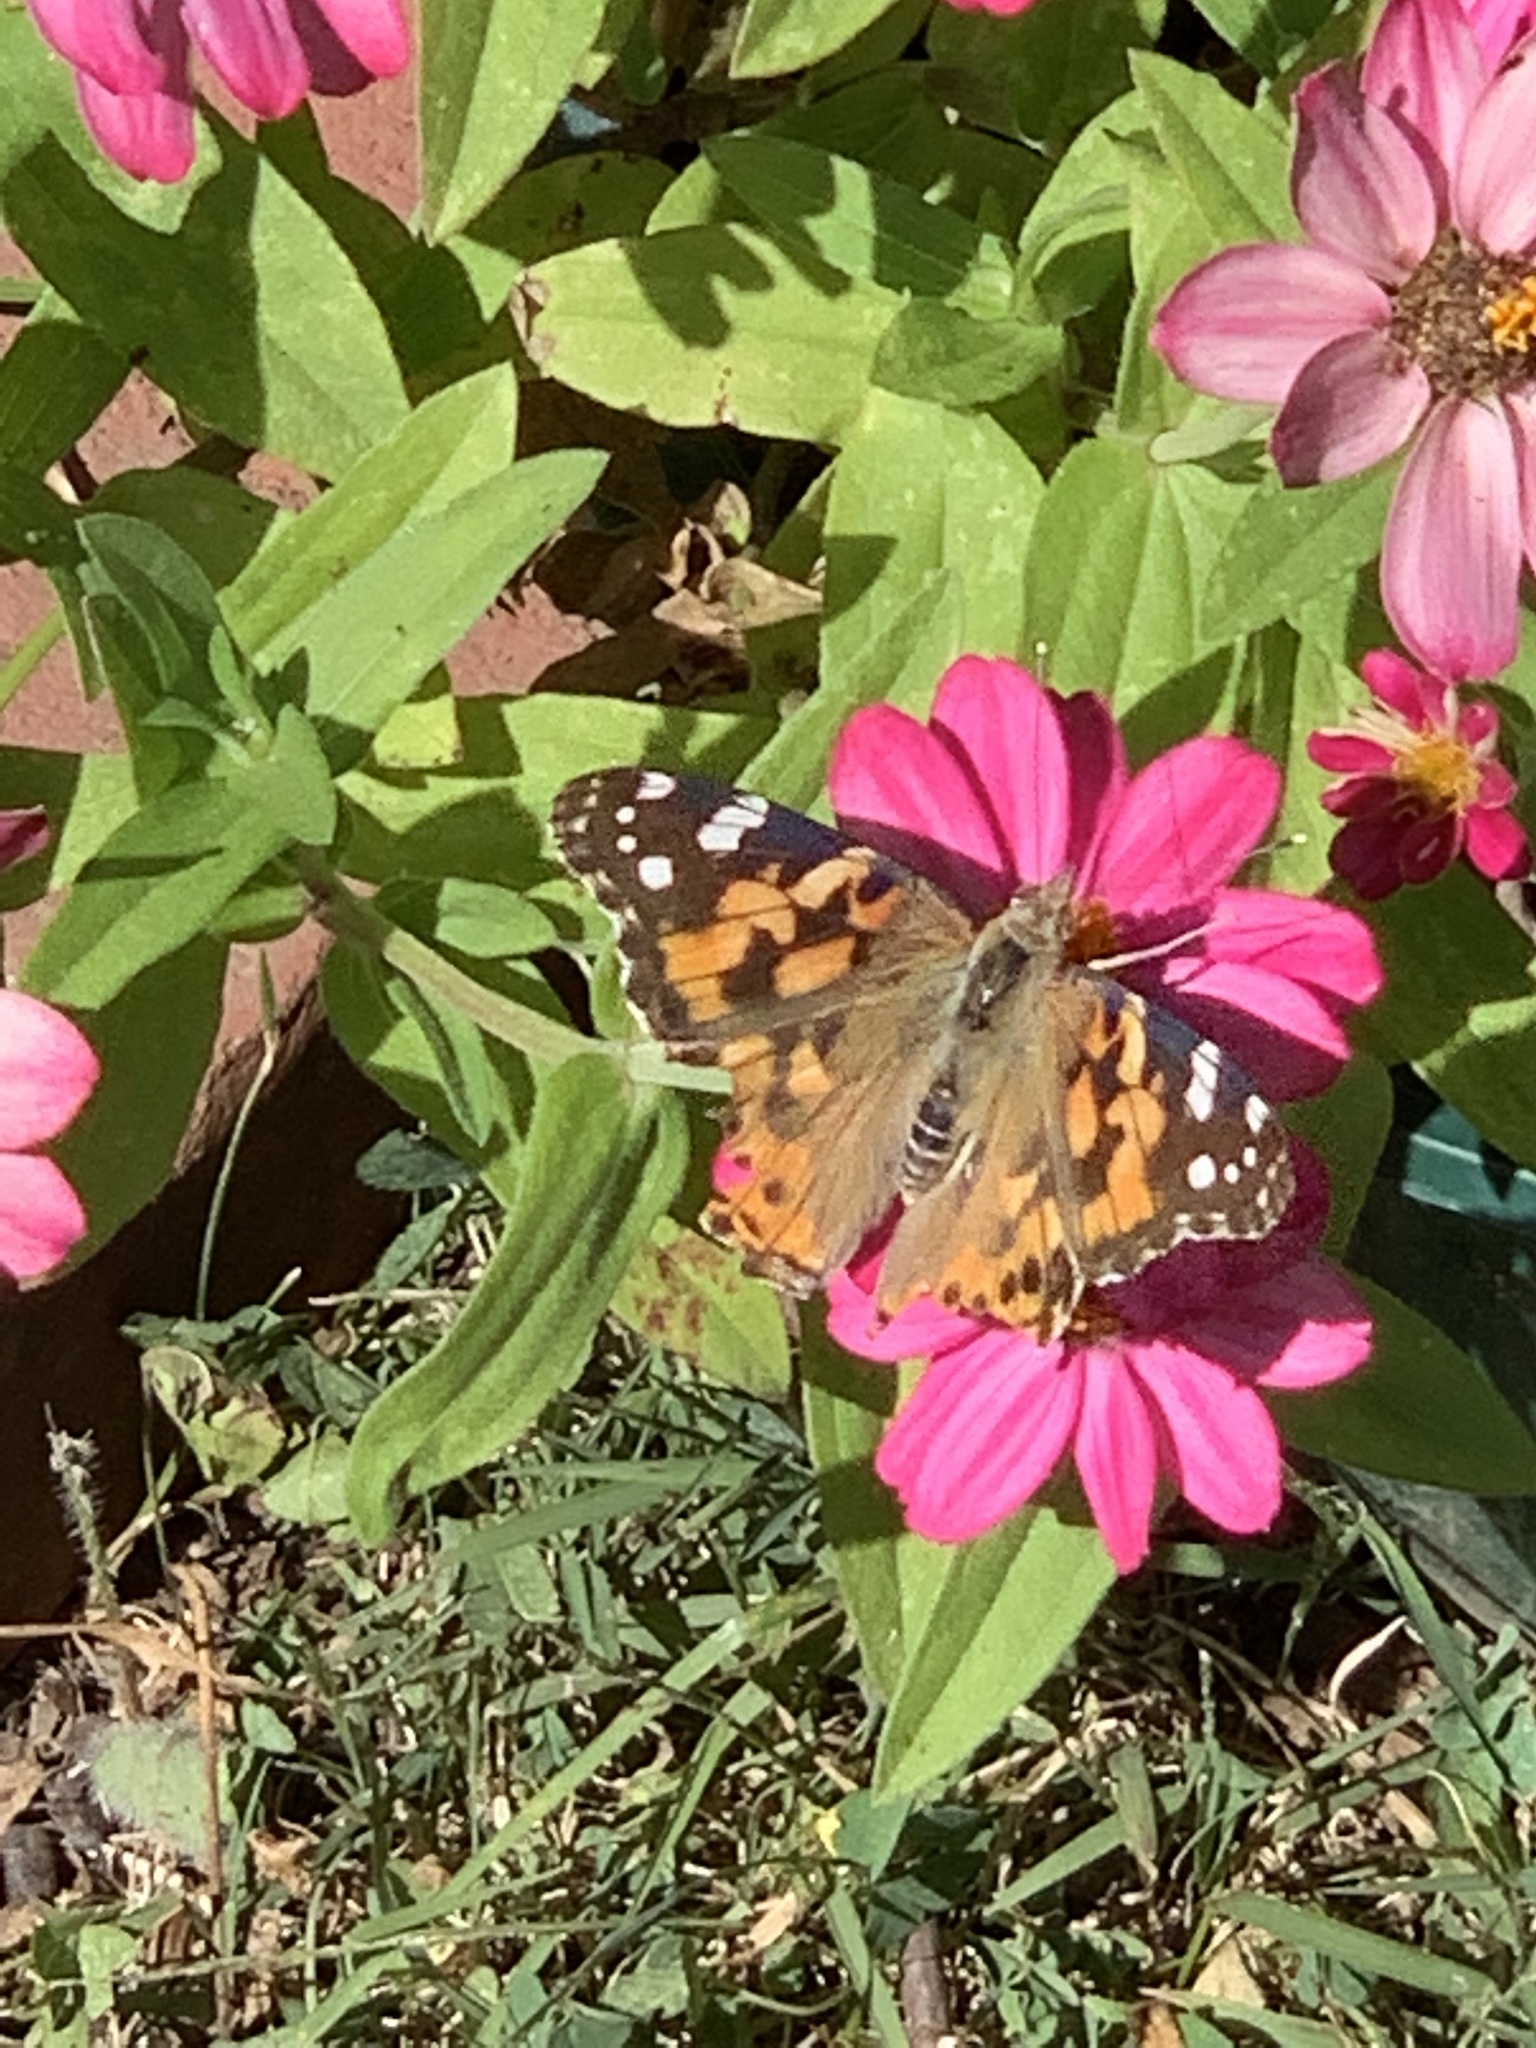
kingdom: Animalia
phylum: Arthropoda
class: Insecta
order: Lepidoptera
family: Nymphalidae
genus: Vanessa
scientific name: Vanessa cardui
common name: Painted lady
